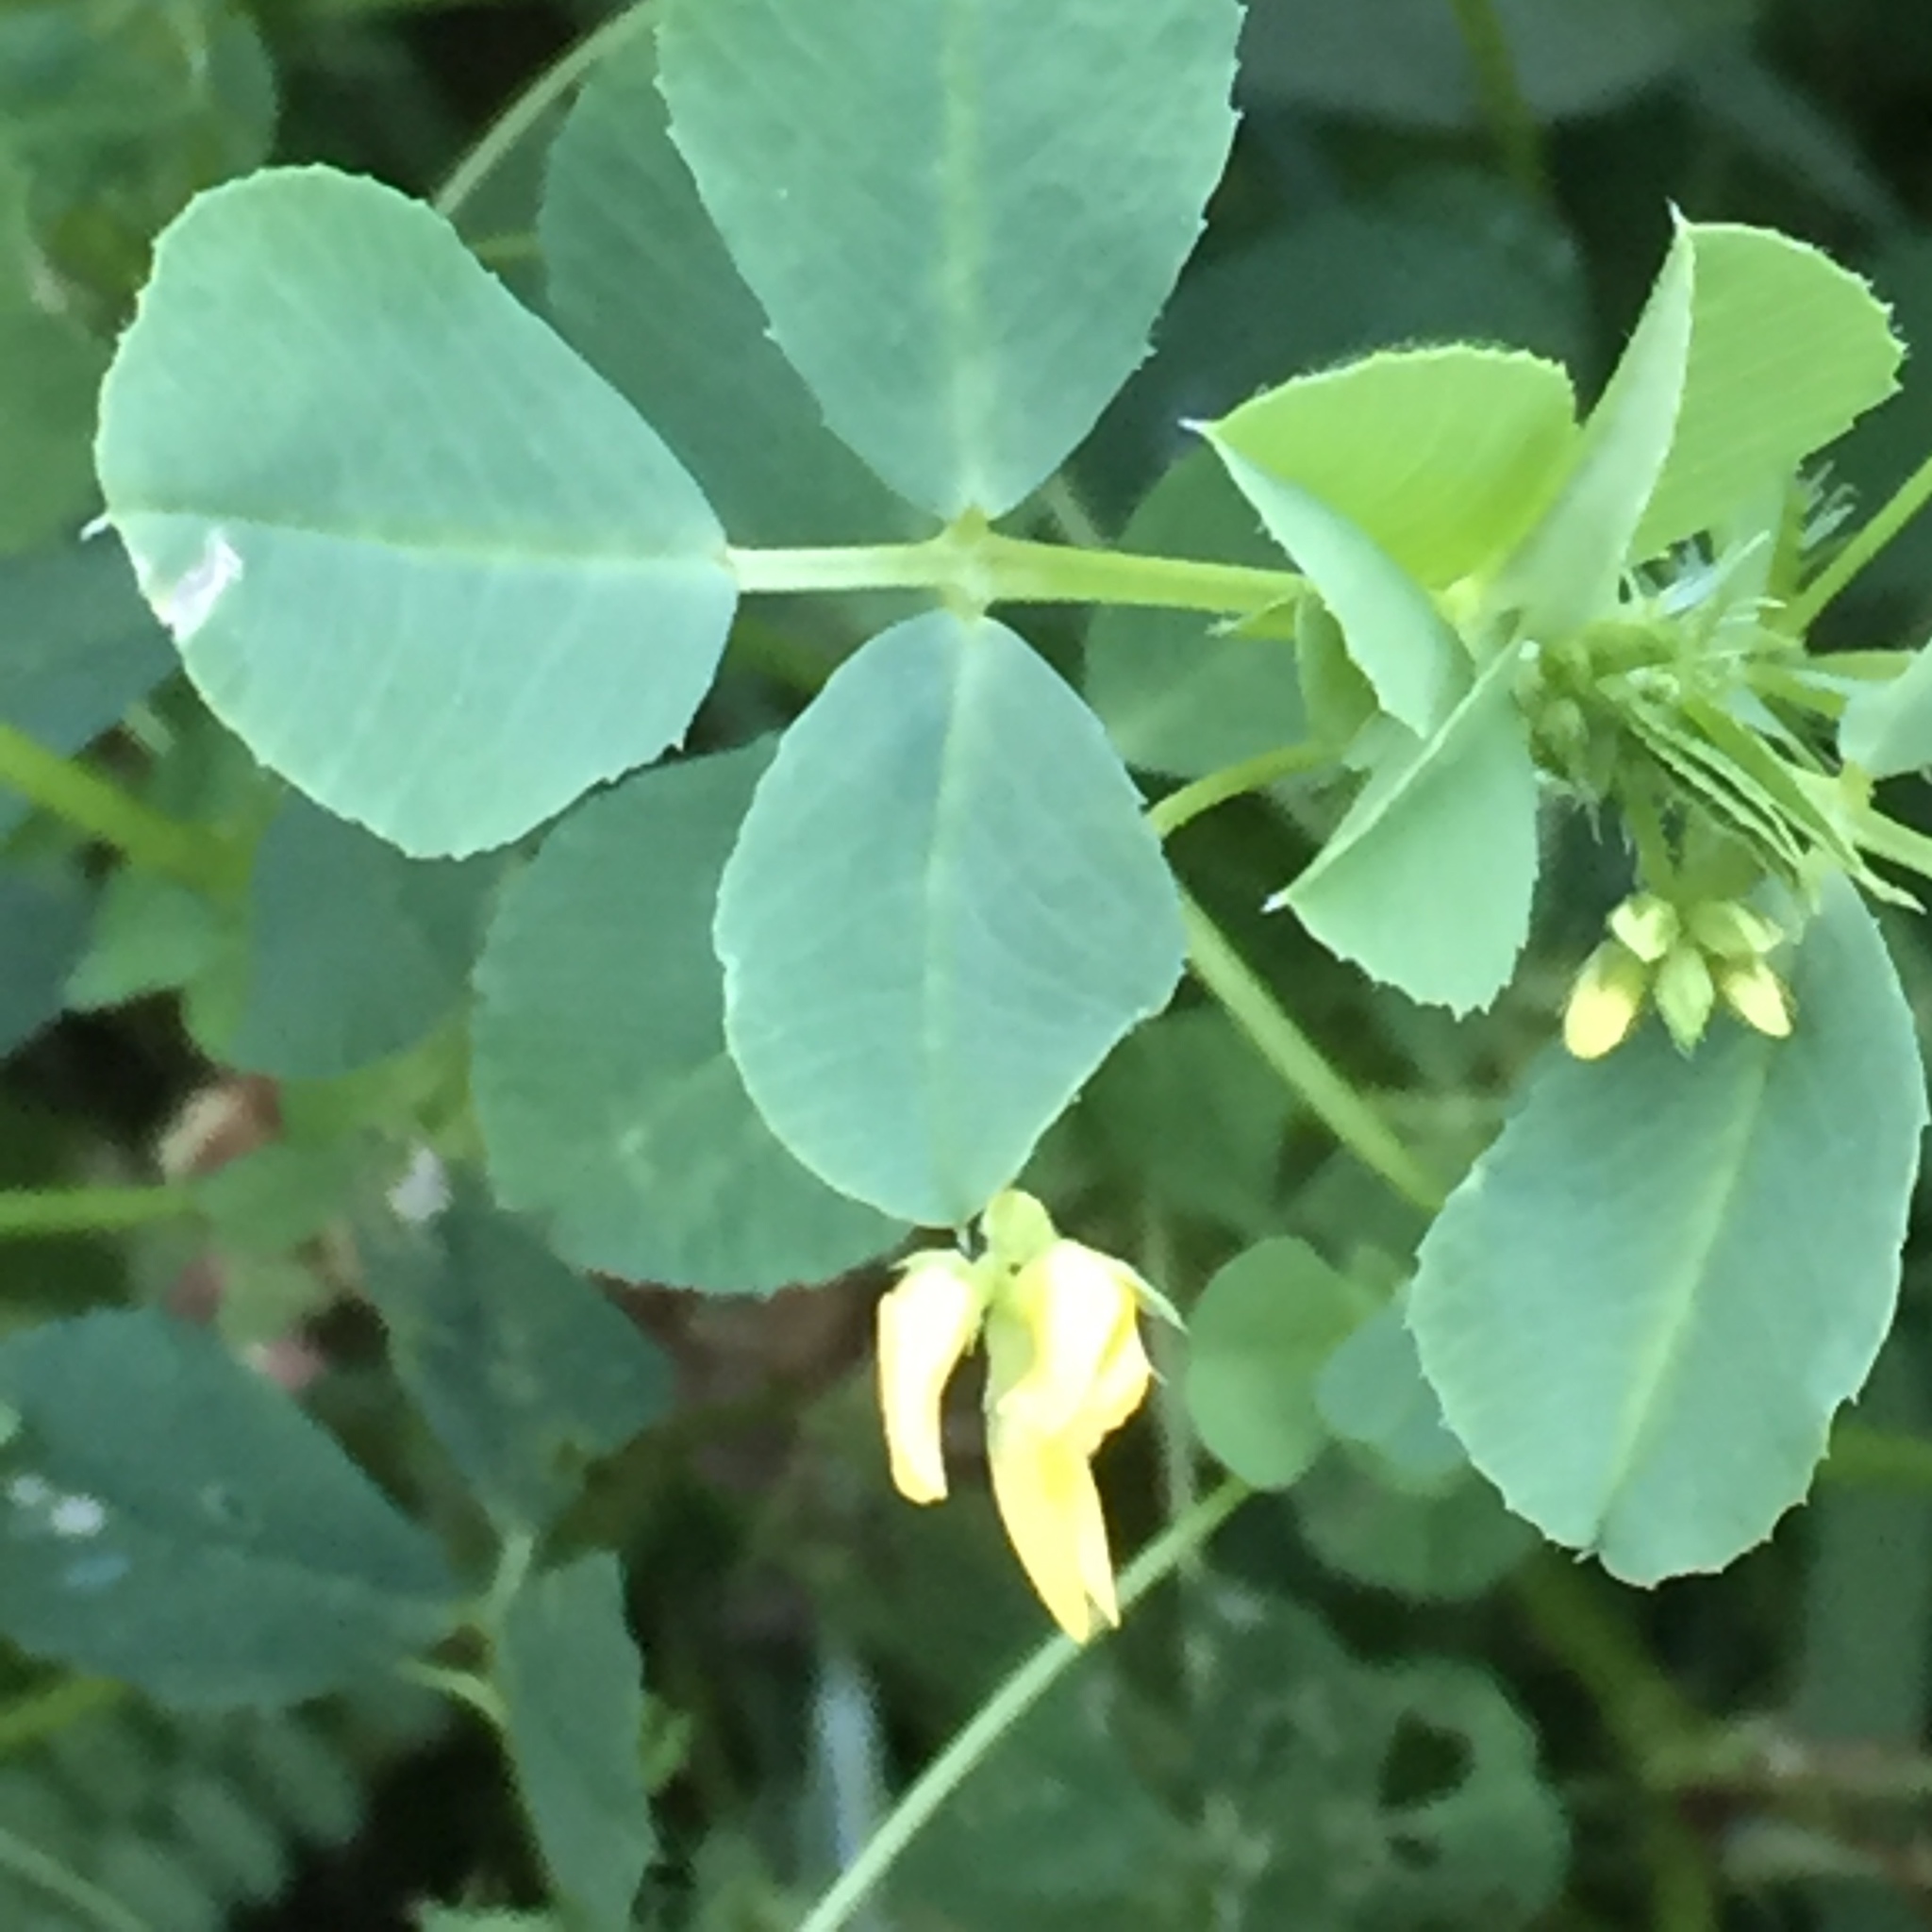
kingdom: Plantae
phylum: Tracheophyta
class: Magnoliopsida
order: Fabales
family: Fabaceae
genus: Medicago
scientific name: Medicago polymorpha
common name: Burclover
